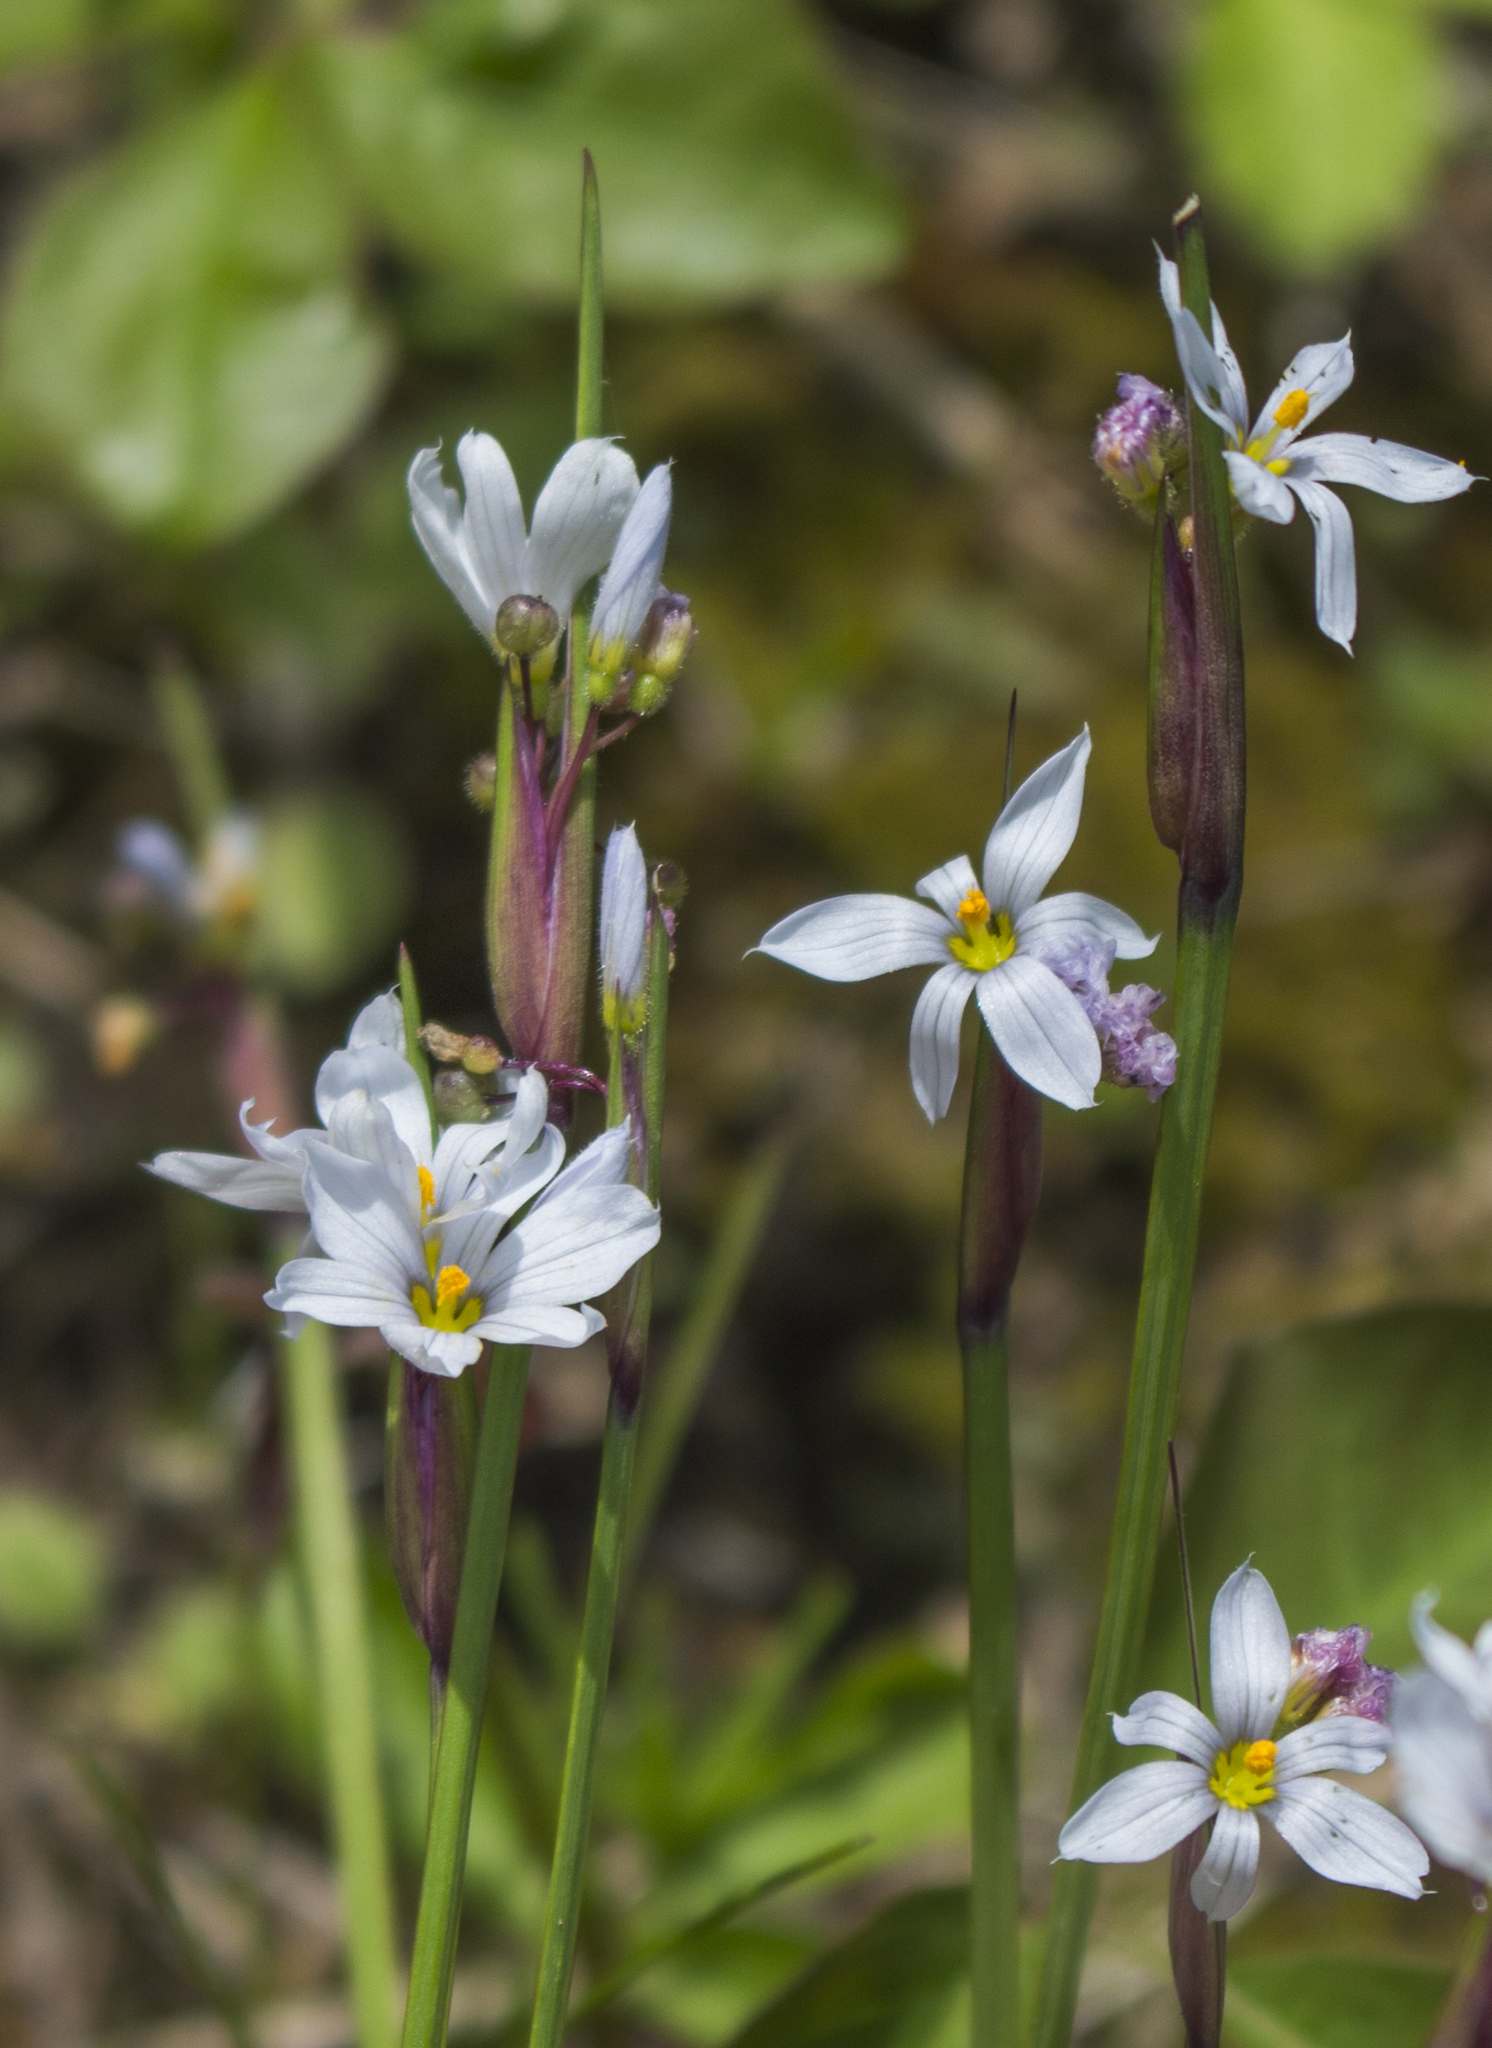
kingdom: Plantae
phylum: Tracheophyta
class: Liliopsida
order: Asparagales
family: Iridaceae
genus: Sisyrinchium
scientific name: Sisyrinchium campestre
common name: Prairie blue-eyed-grass
